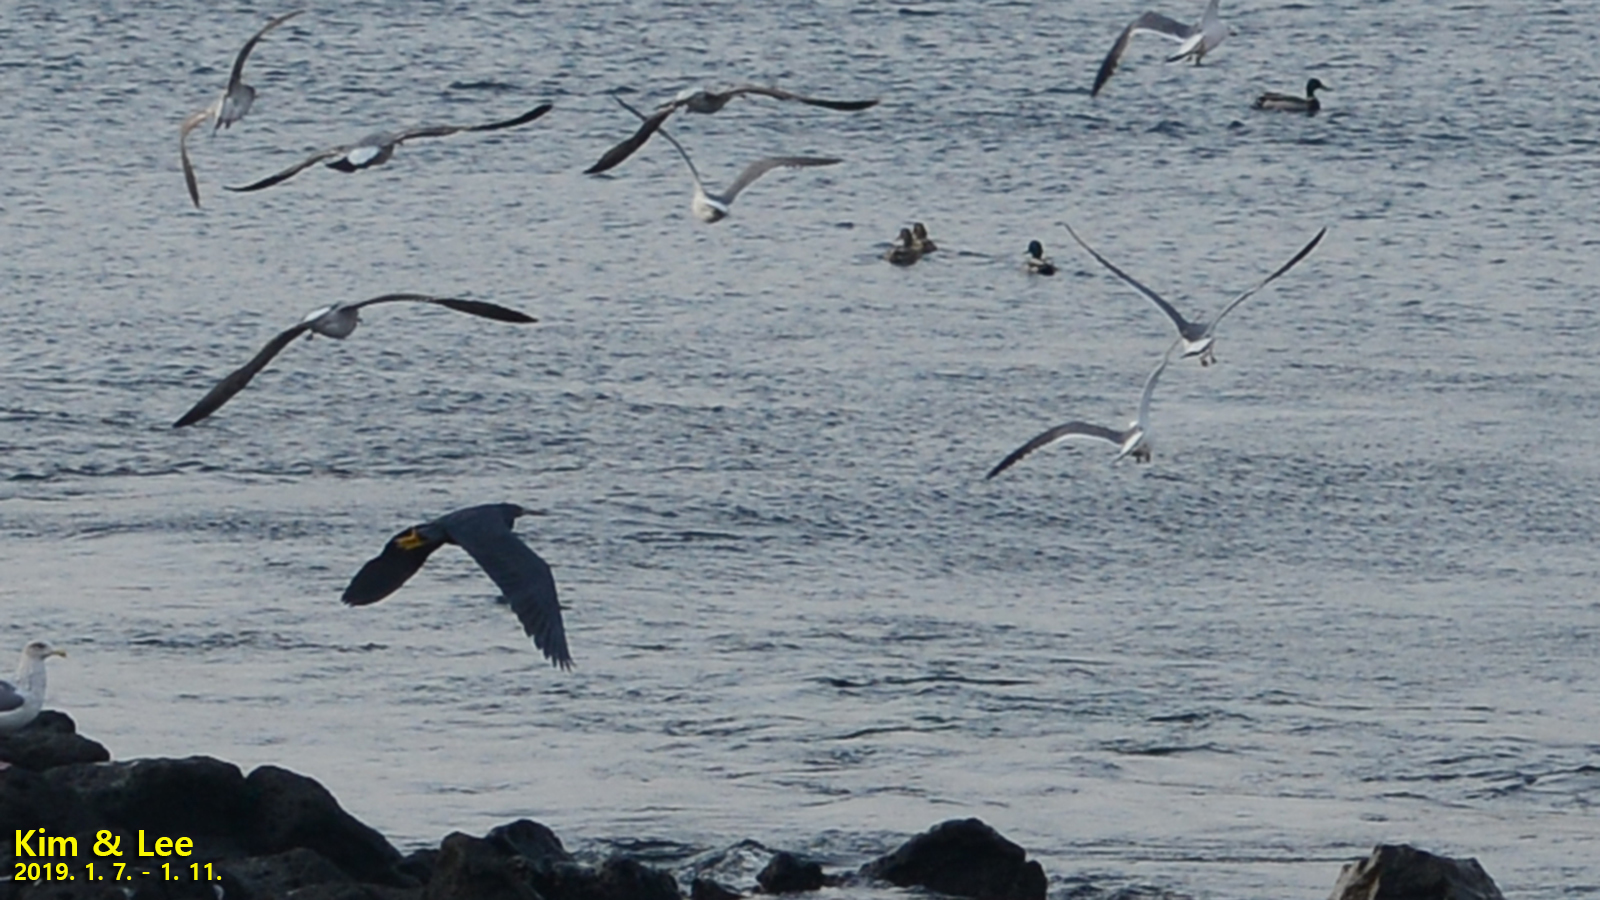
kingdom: Animalia
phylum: Chordata
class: Aves
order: Pelecaniformes
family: Ardeidae
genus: Egretta
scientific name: Egretta sacra
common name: Pacific reef heron
